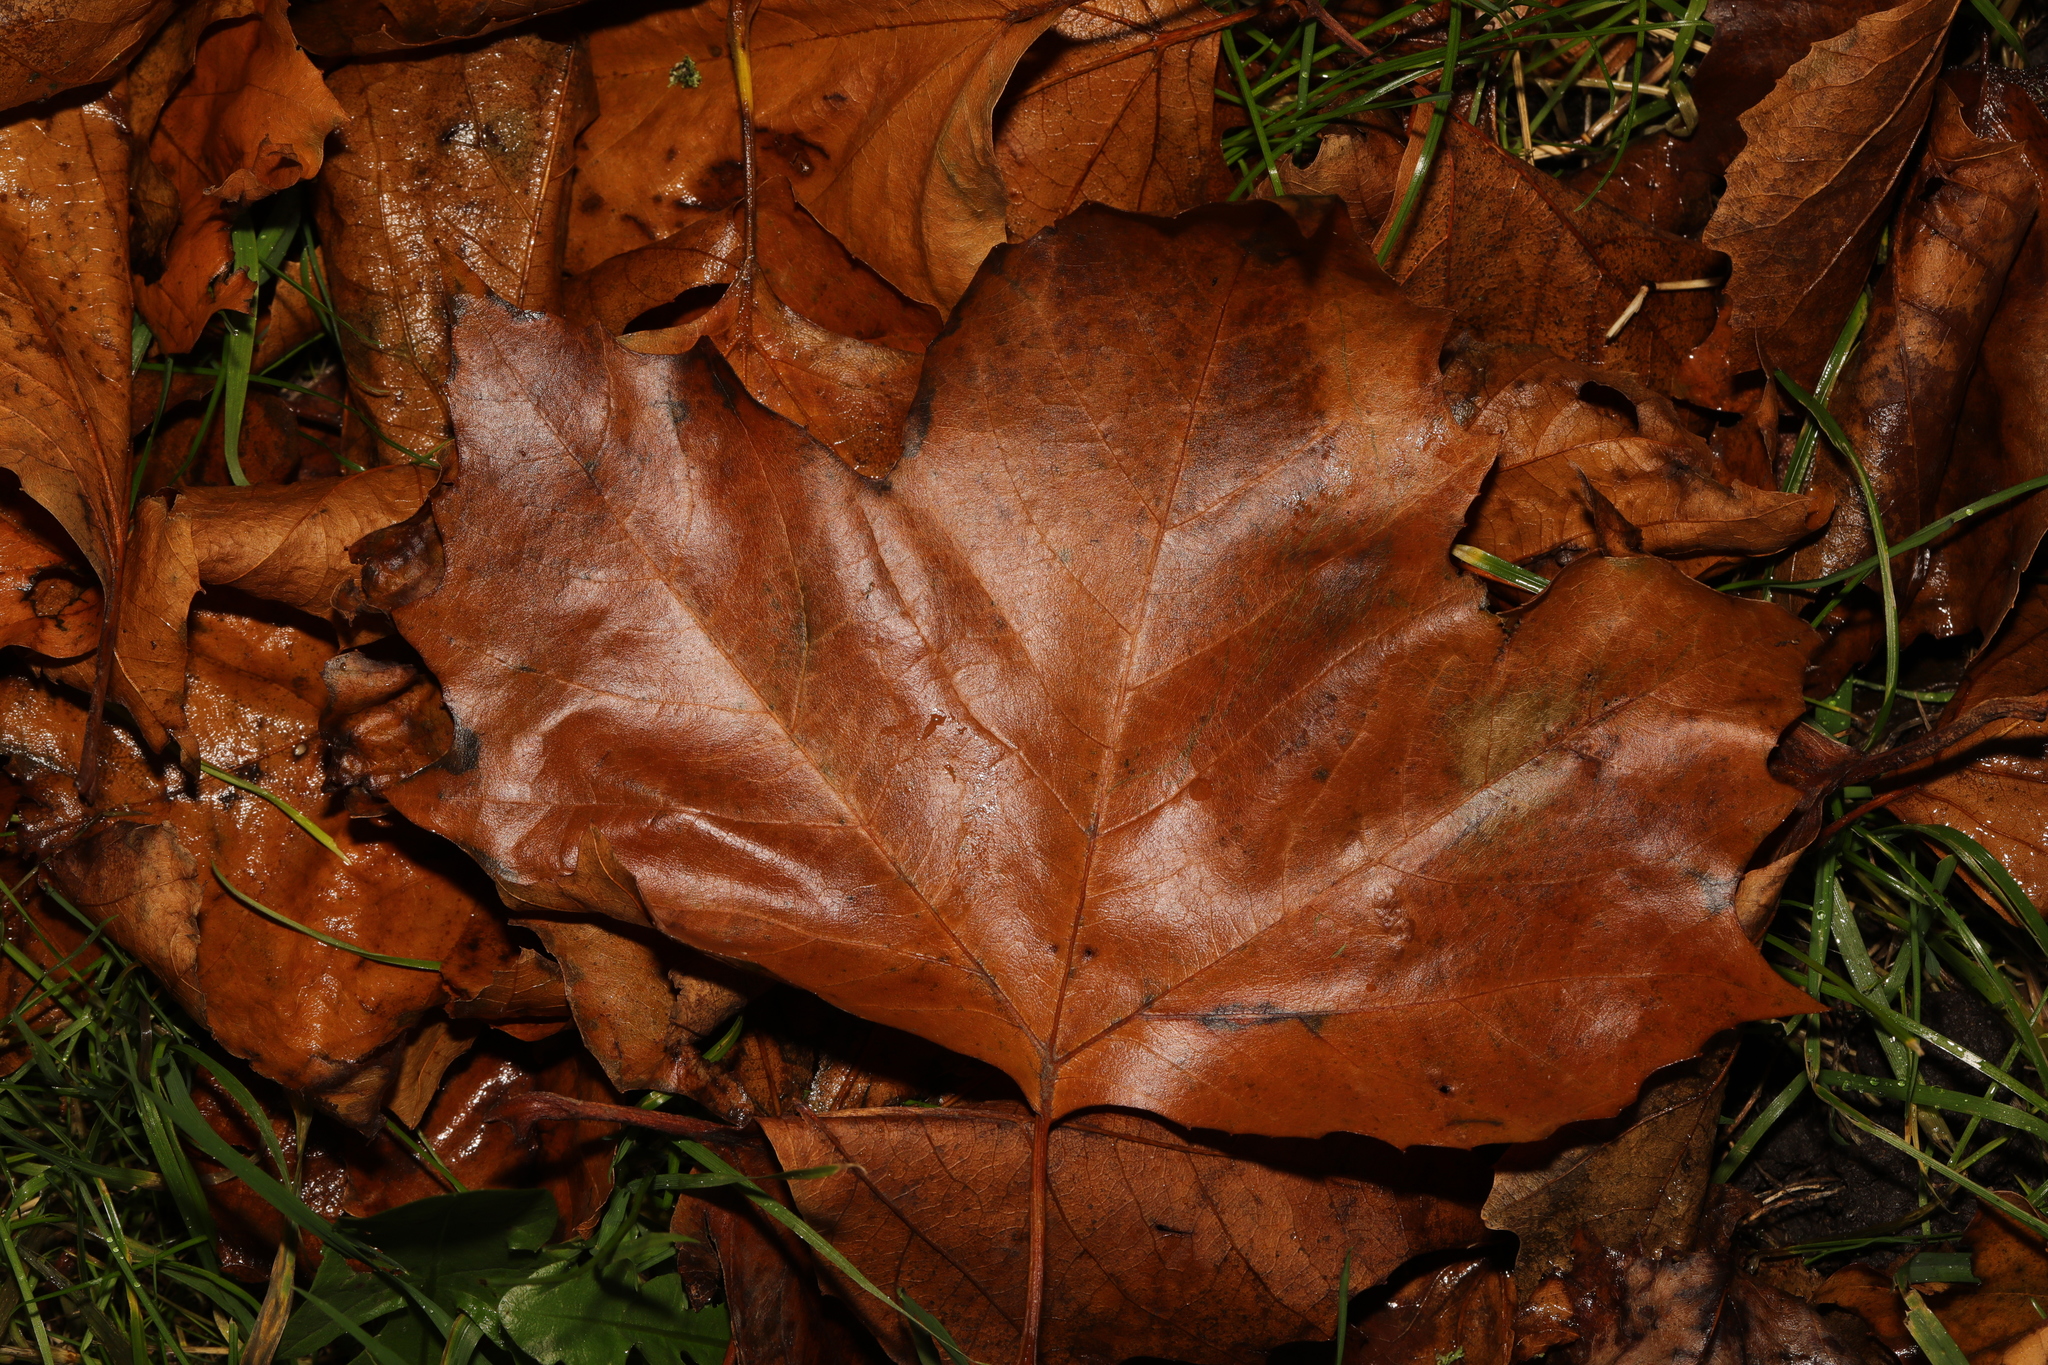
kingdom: Plantae
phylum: Tracheophyta
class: Magnoliopsida
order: Proteales
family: Platanaceae
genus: Platanus
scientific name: Platanus hispanica
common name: London plane
